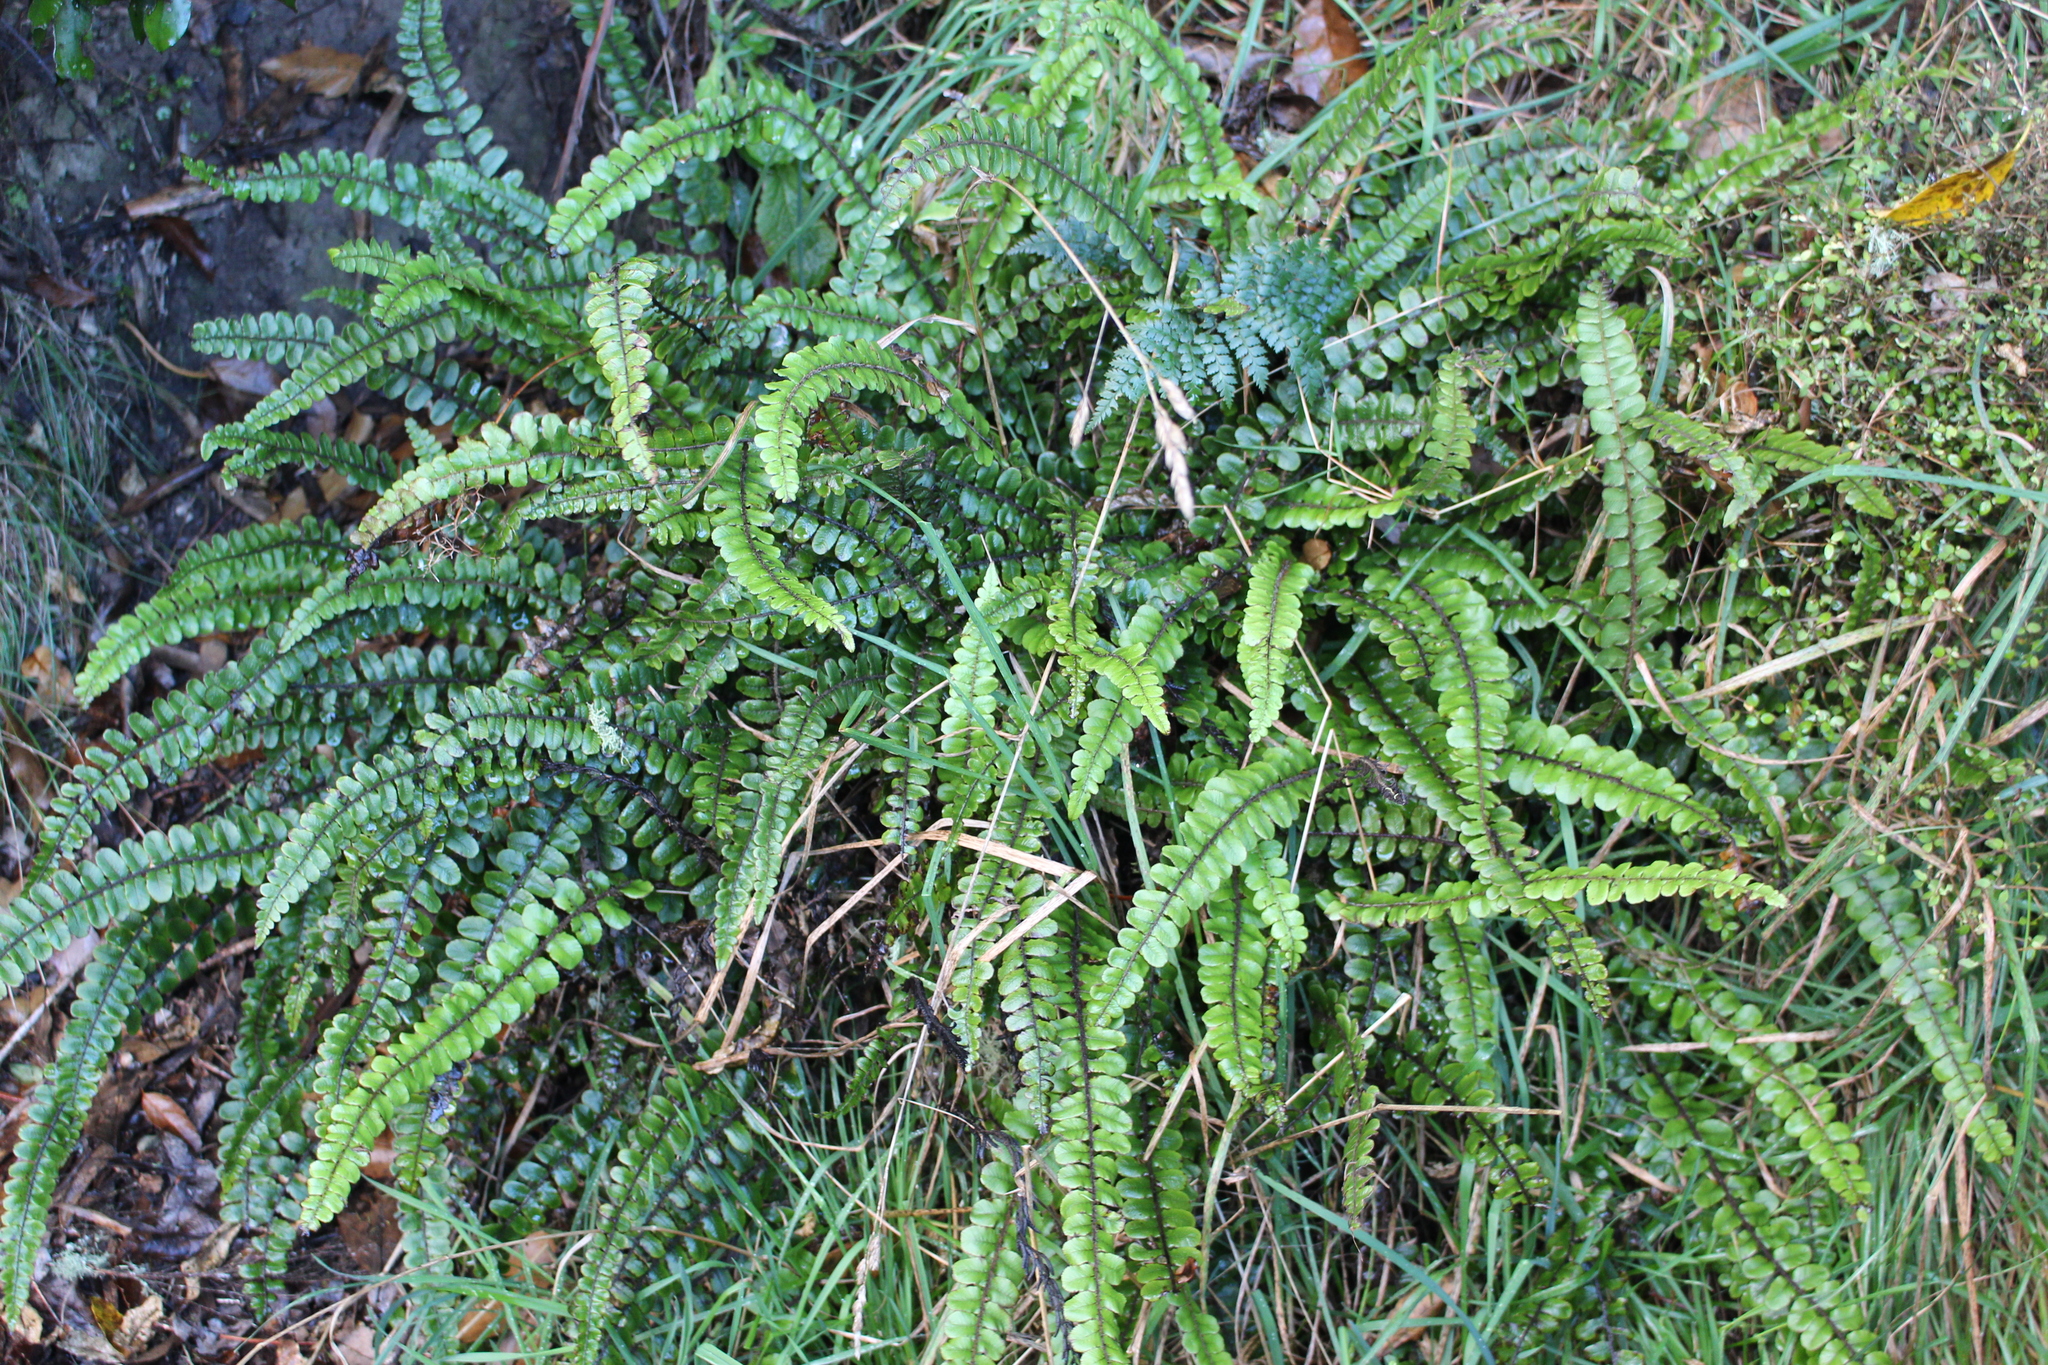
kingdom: Plantae
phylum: Tracheophyta
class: Polypodiopsida
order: Polypodiales
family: Blechnaceae
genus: Cranfillia
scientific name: Cranfillia fluviatilis
